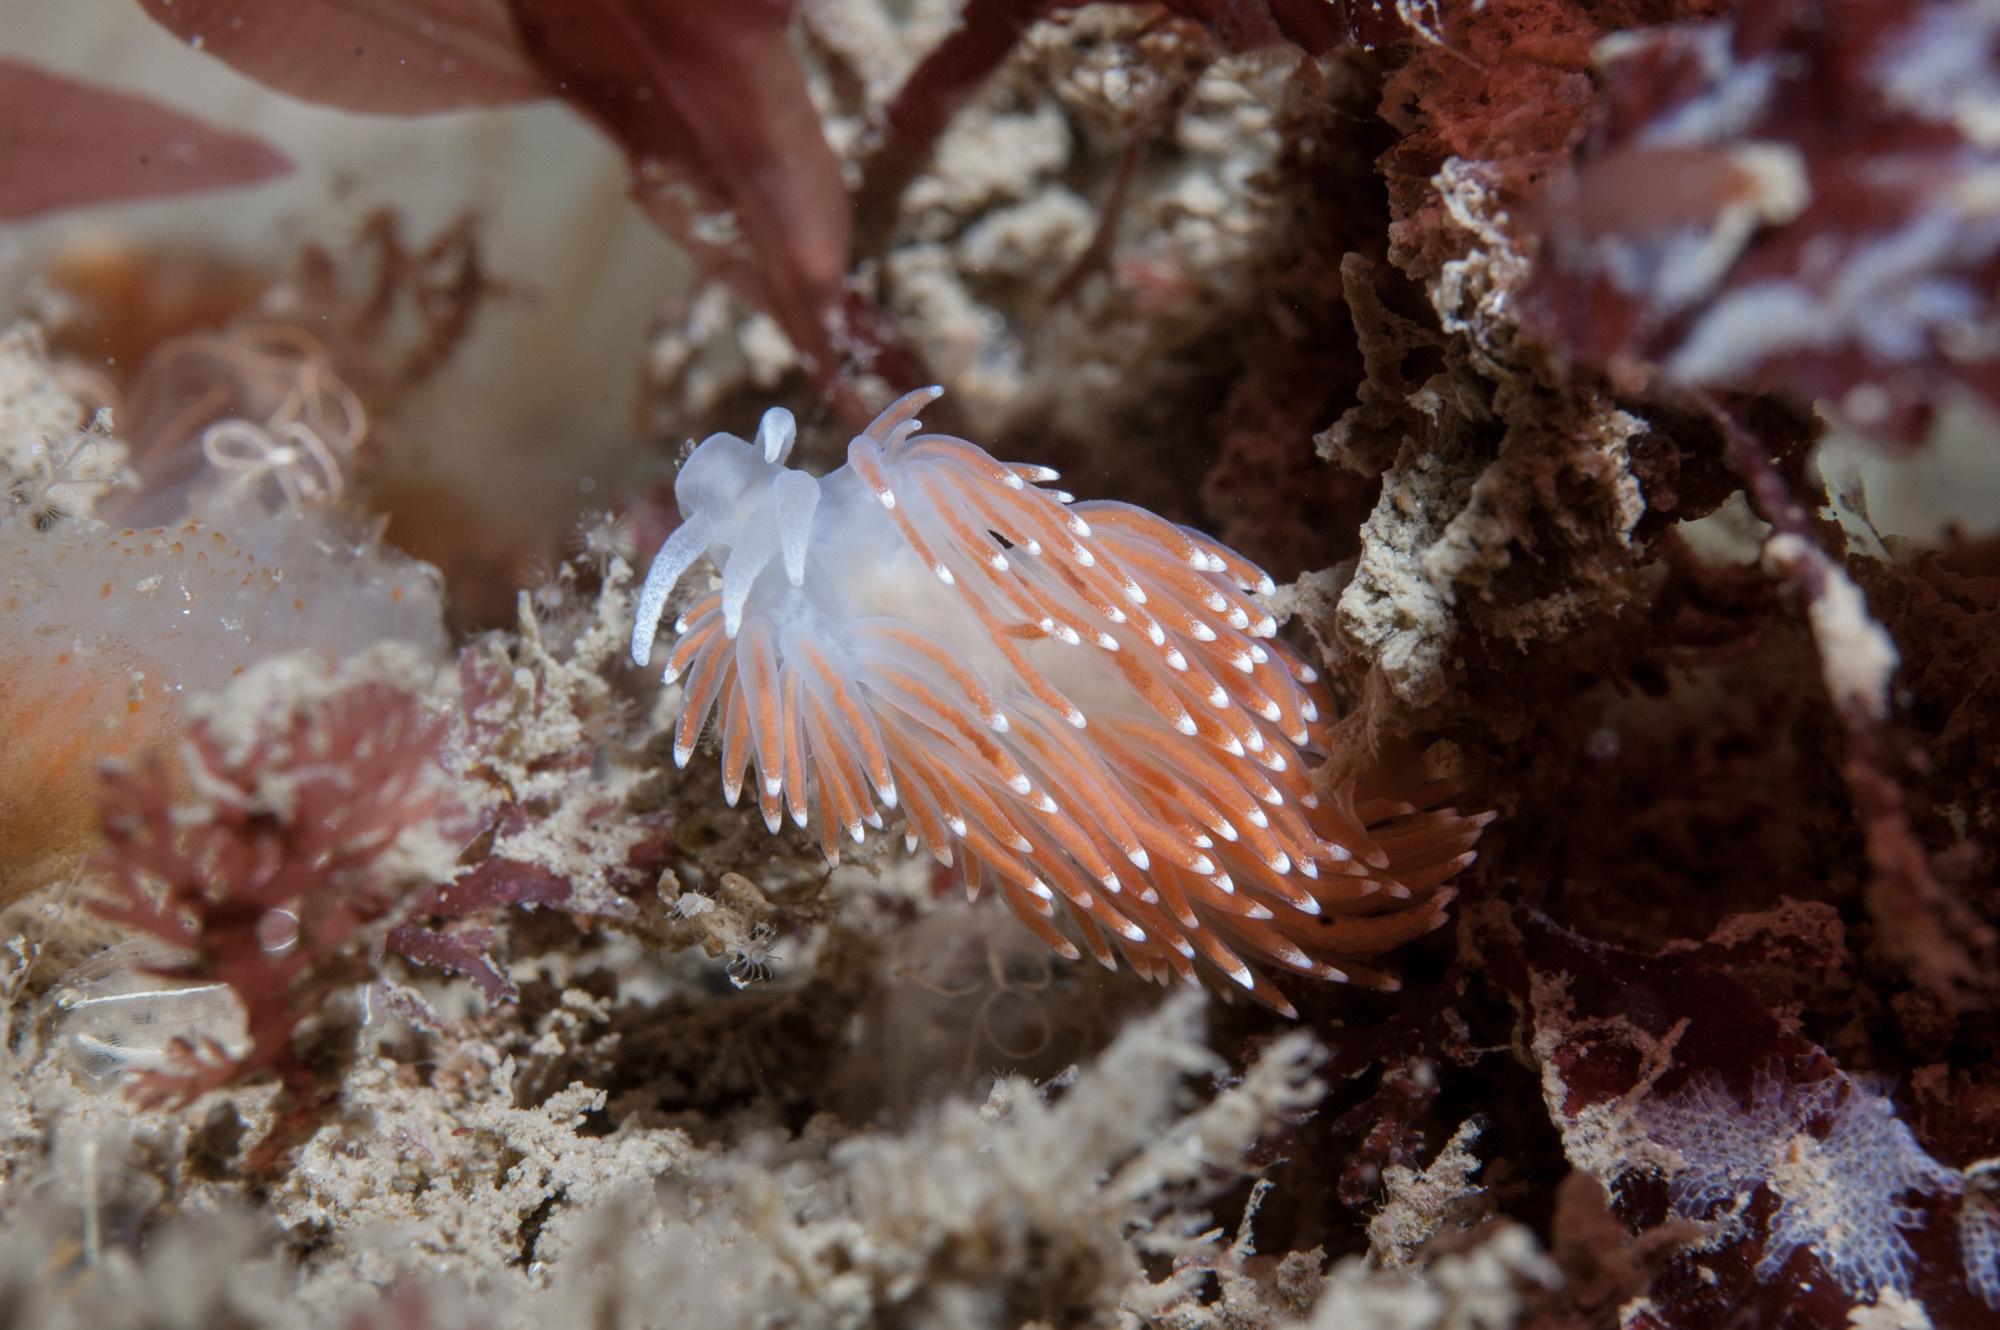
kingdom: Animalia
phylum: Mollusca
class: Gastropoda
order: Nudibranchia
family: Flabellinidae
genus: Carronella
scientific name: Carronella pellucida
